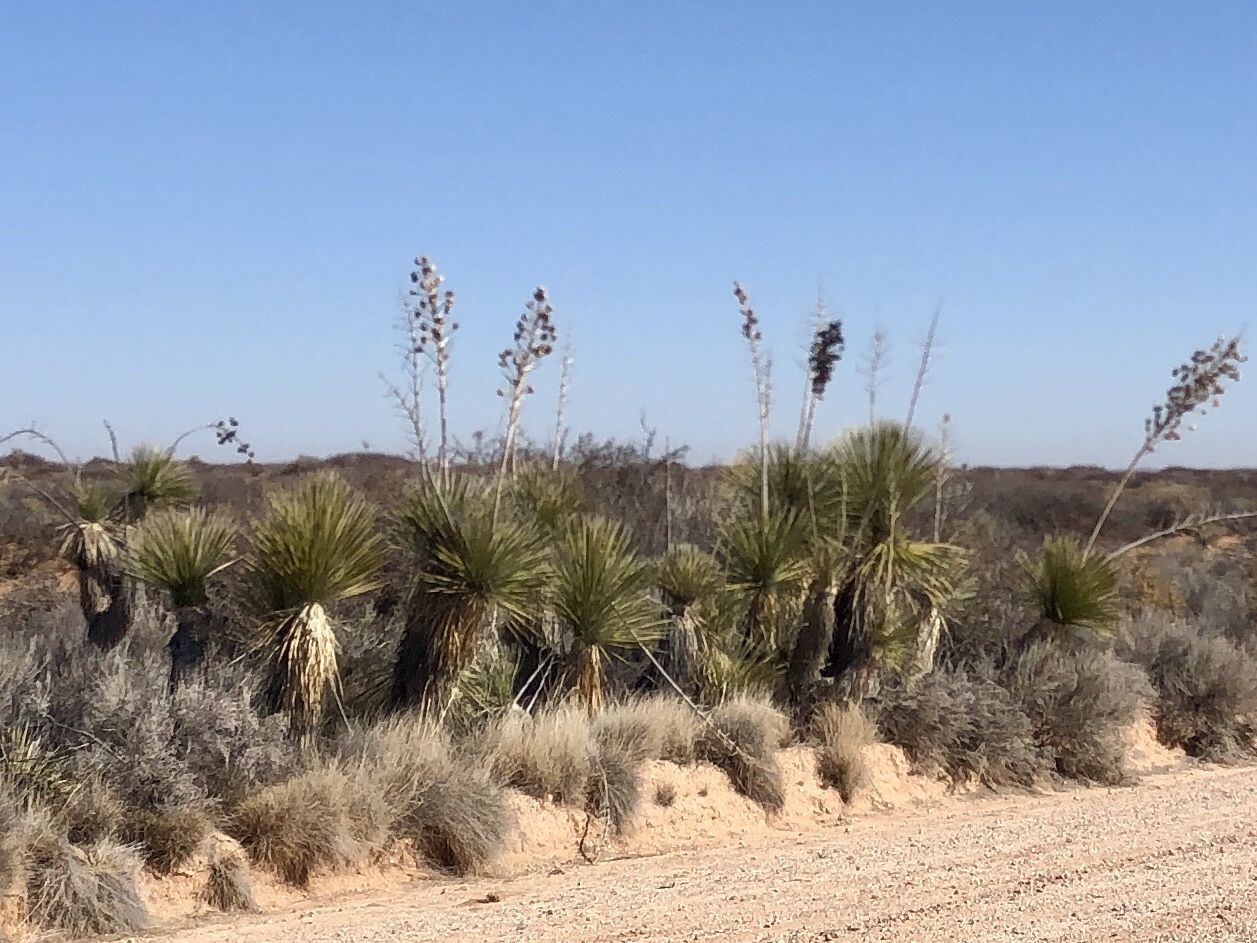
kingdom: Plantae
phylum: Tracheophyta
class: Liliopsida
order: Asparagales
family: Asparagaceae
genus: Yucca
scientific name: Yucca elata
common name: Palmella
